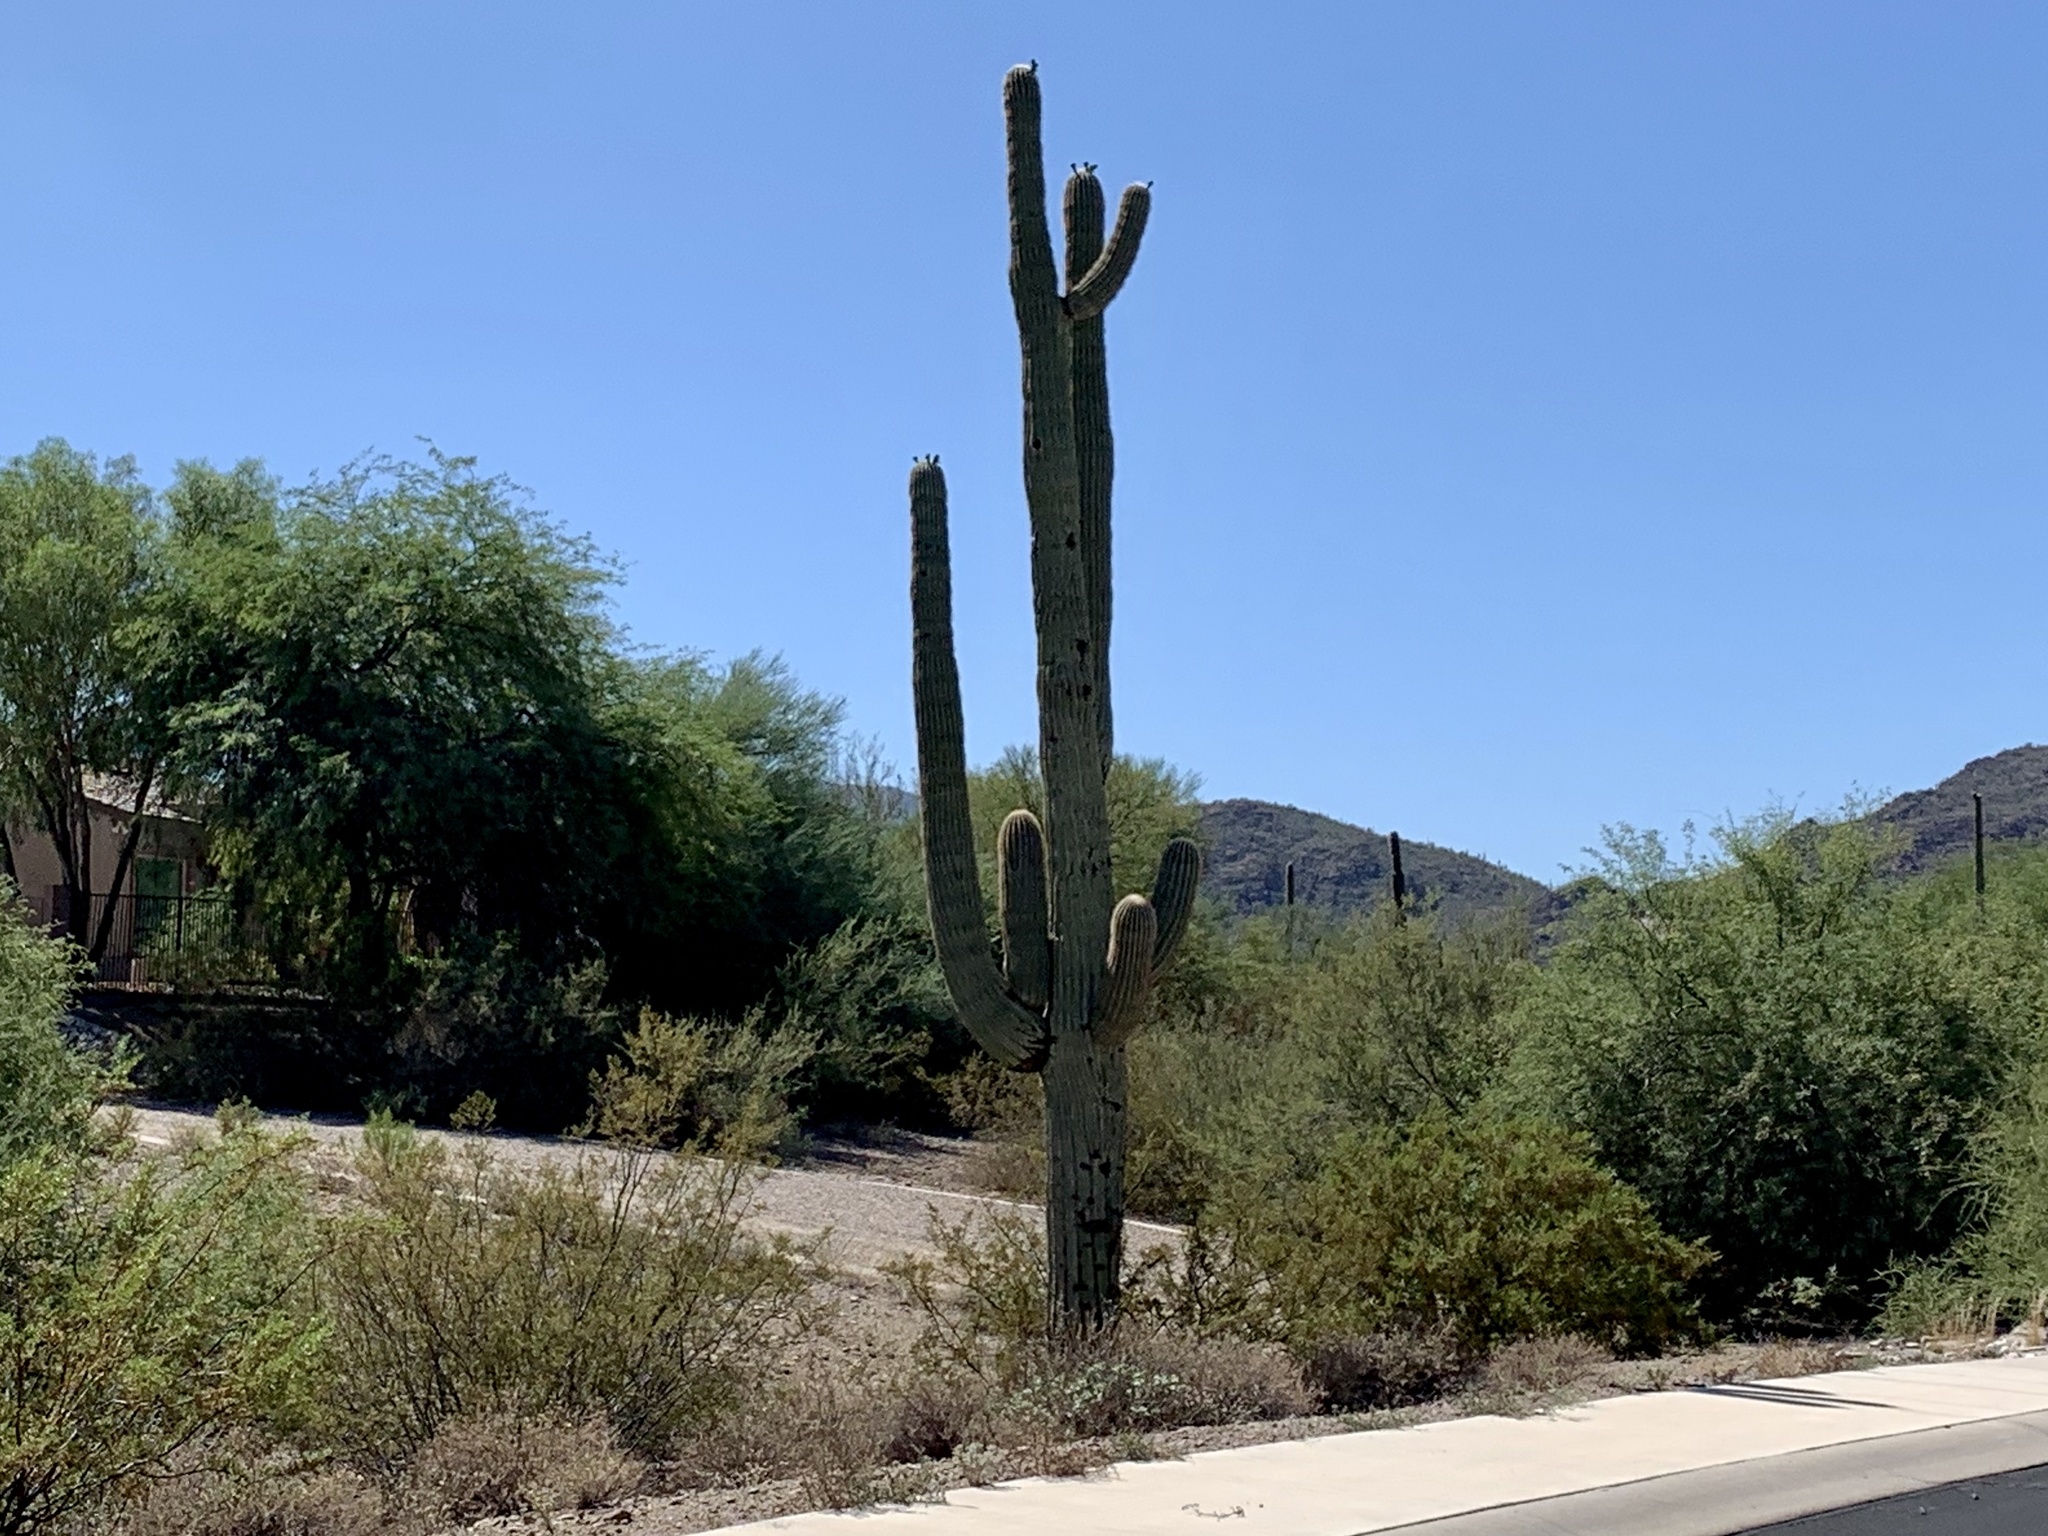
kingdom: Plantae
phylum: Tracheophyta
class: Magnoliopsida
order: Caryophyllales
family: Cactaceae
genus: Carnegiea
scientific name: Carnegiea gigantea
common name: Saguaro
